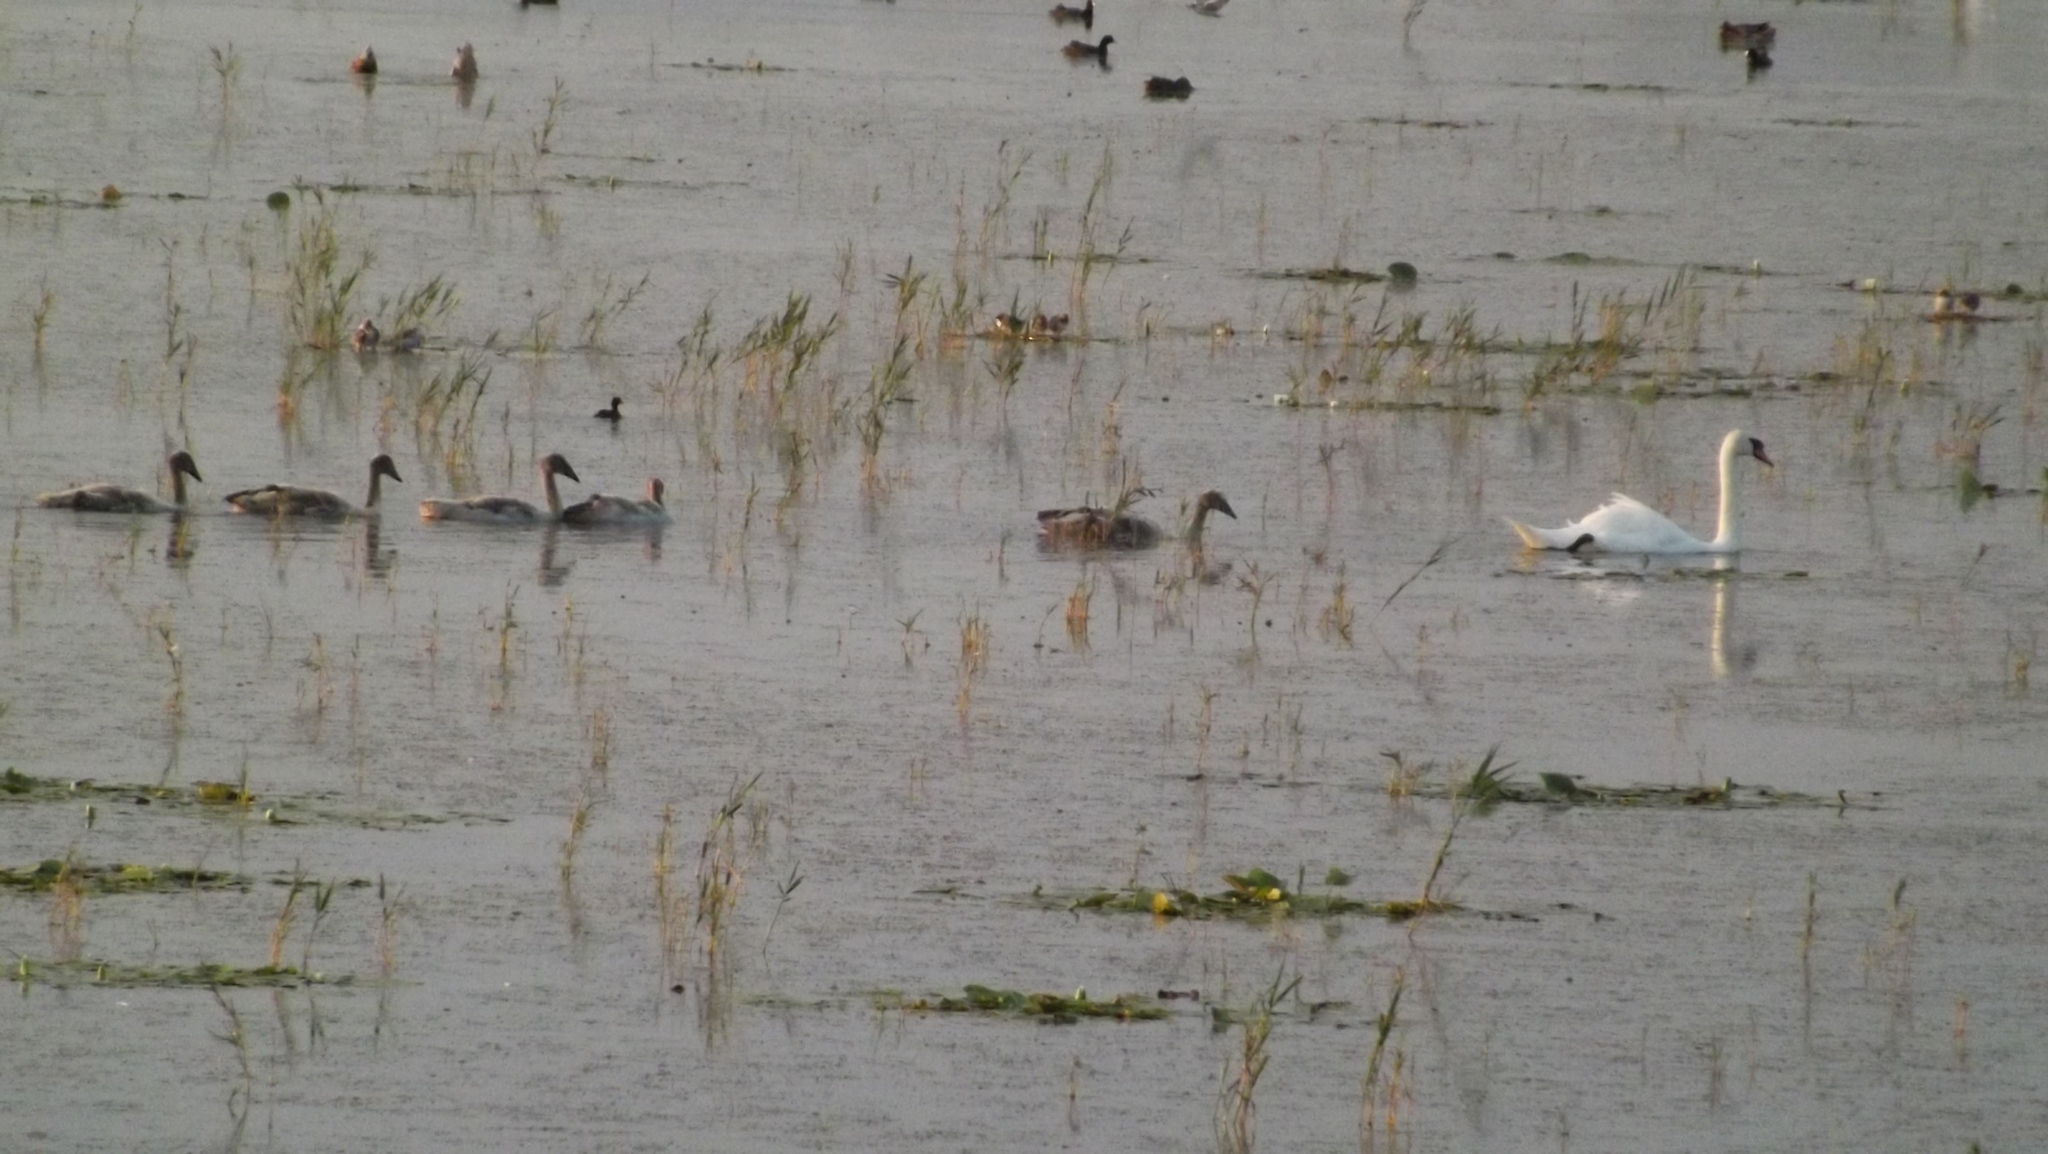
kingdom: Animalia
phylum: Chordata
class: Aves
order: Anseriformes
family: Anatidae
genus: Cygnus
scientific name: Cygnus olor
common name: Mute swan
